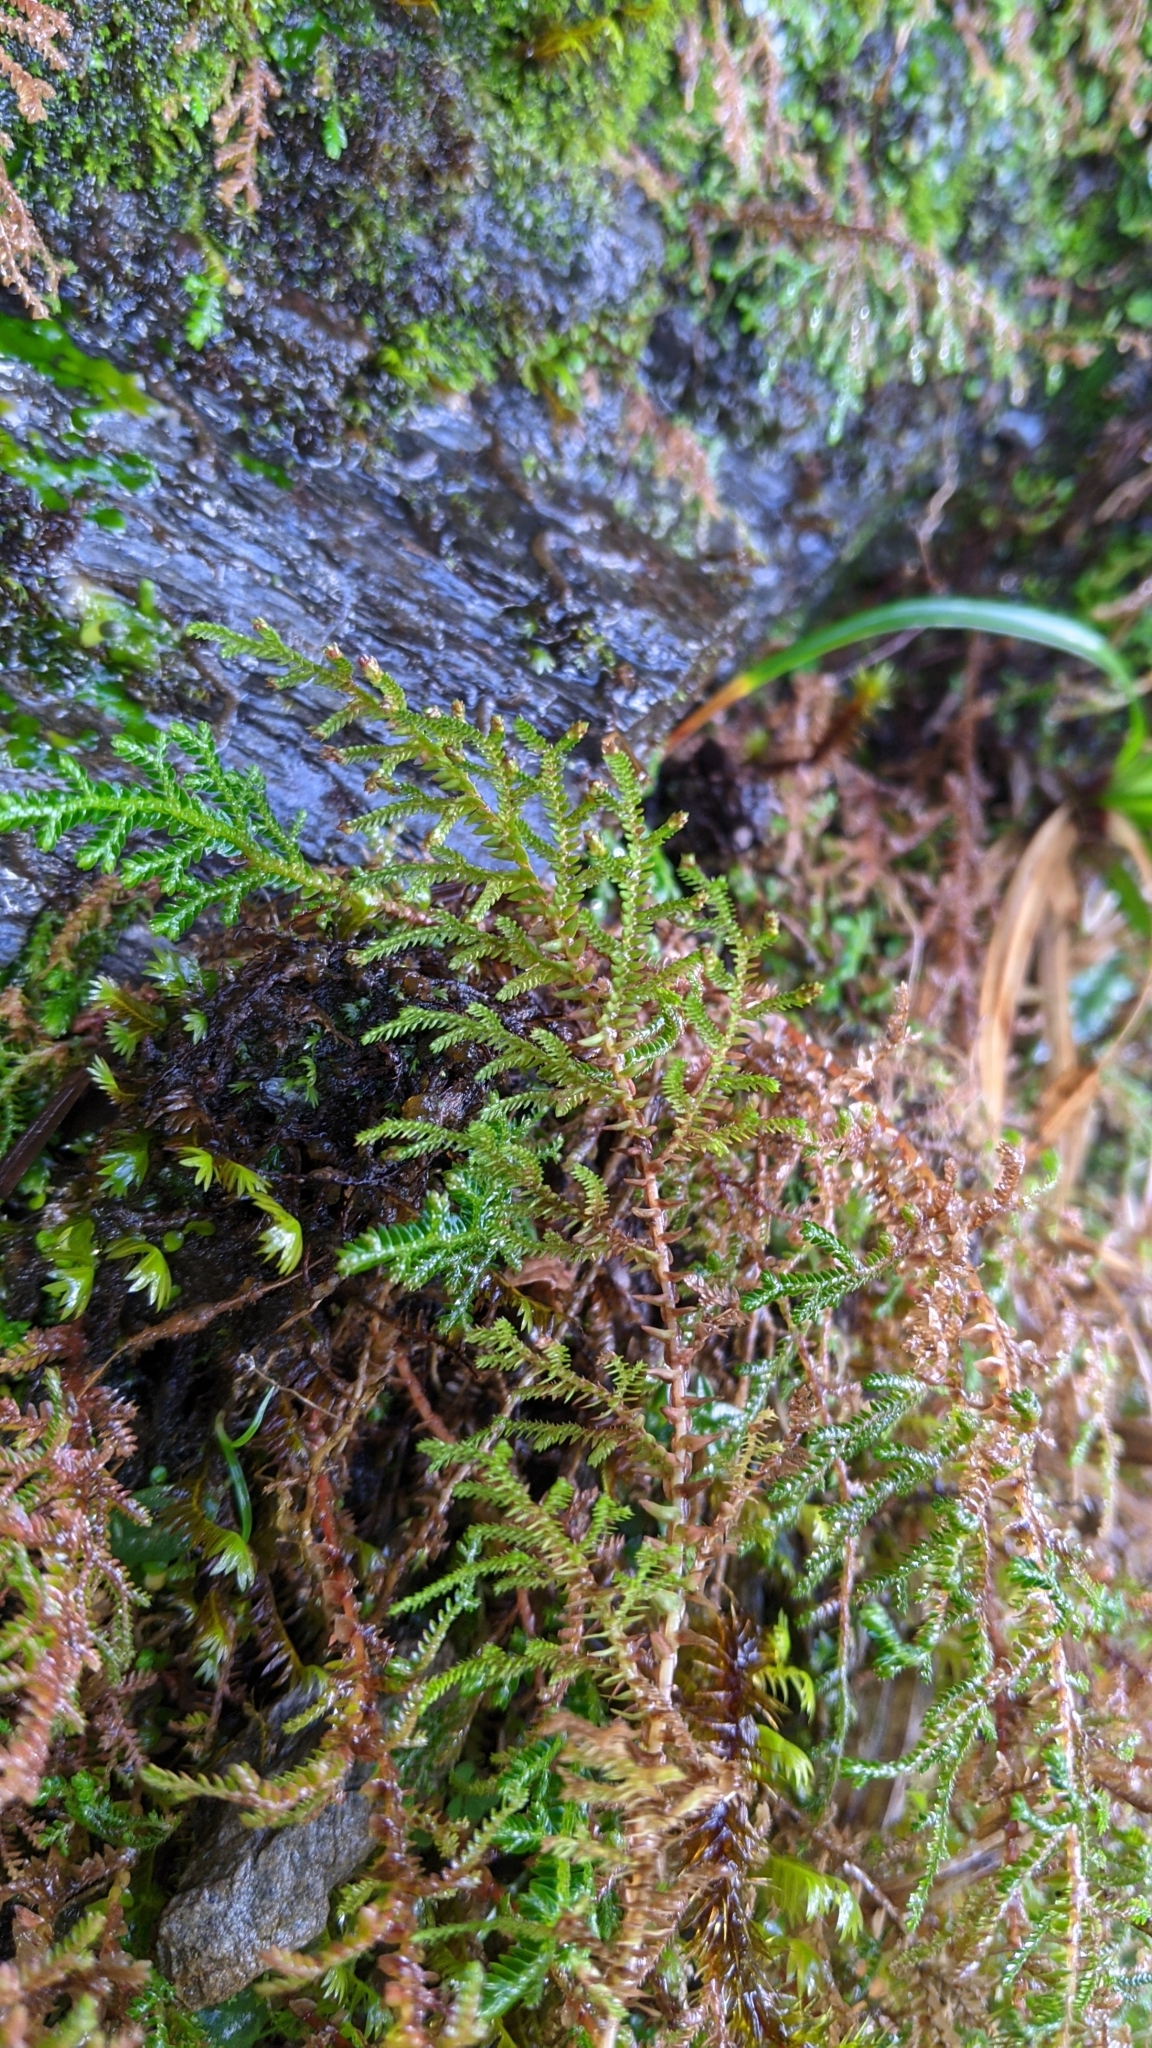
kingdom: Plantae
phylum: Tracheophyta
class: Lycopodiopsida
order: Selaginellales
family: Selaginellaceae
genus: Selaginella
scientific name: Selaginella labordei
